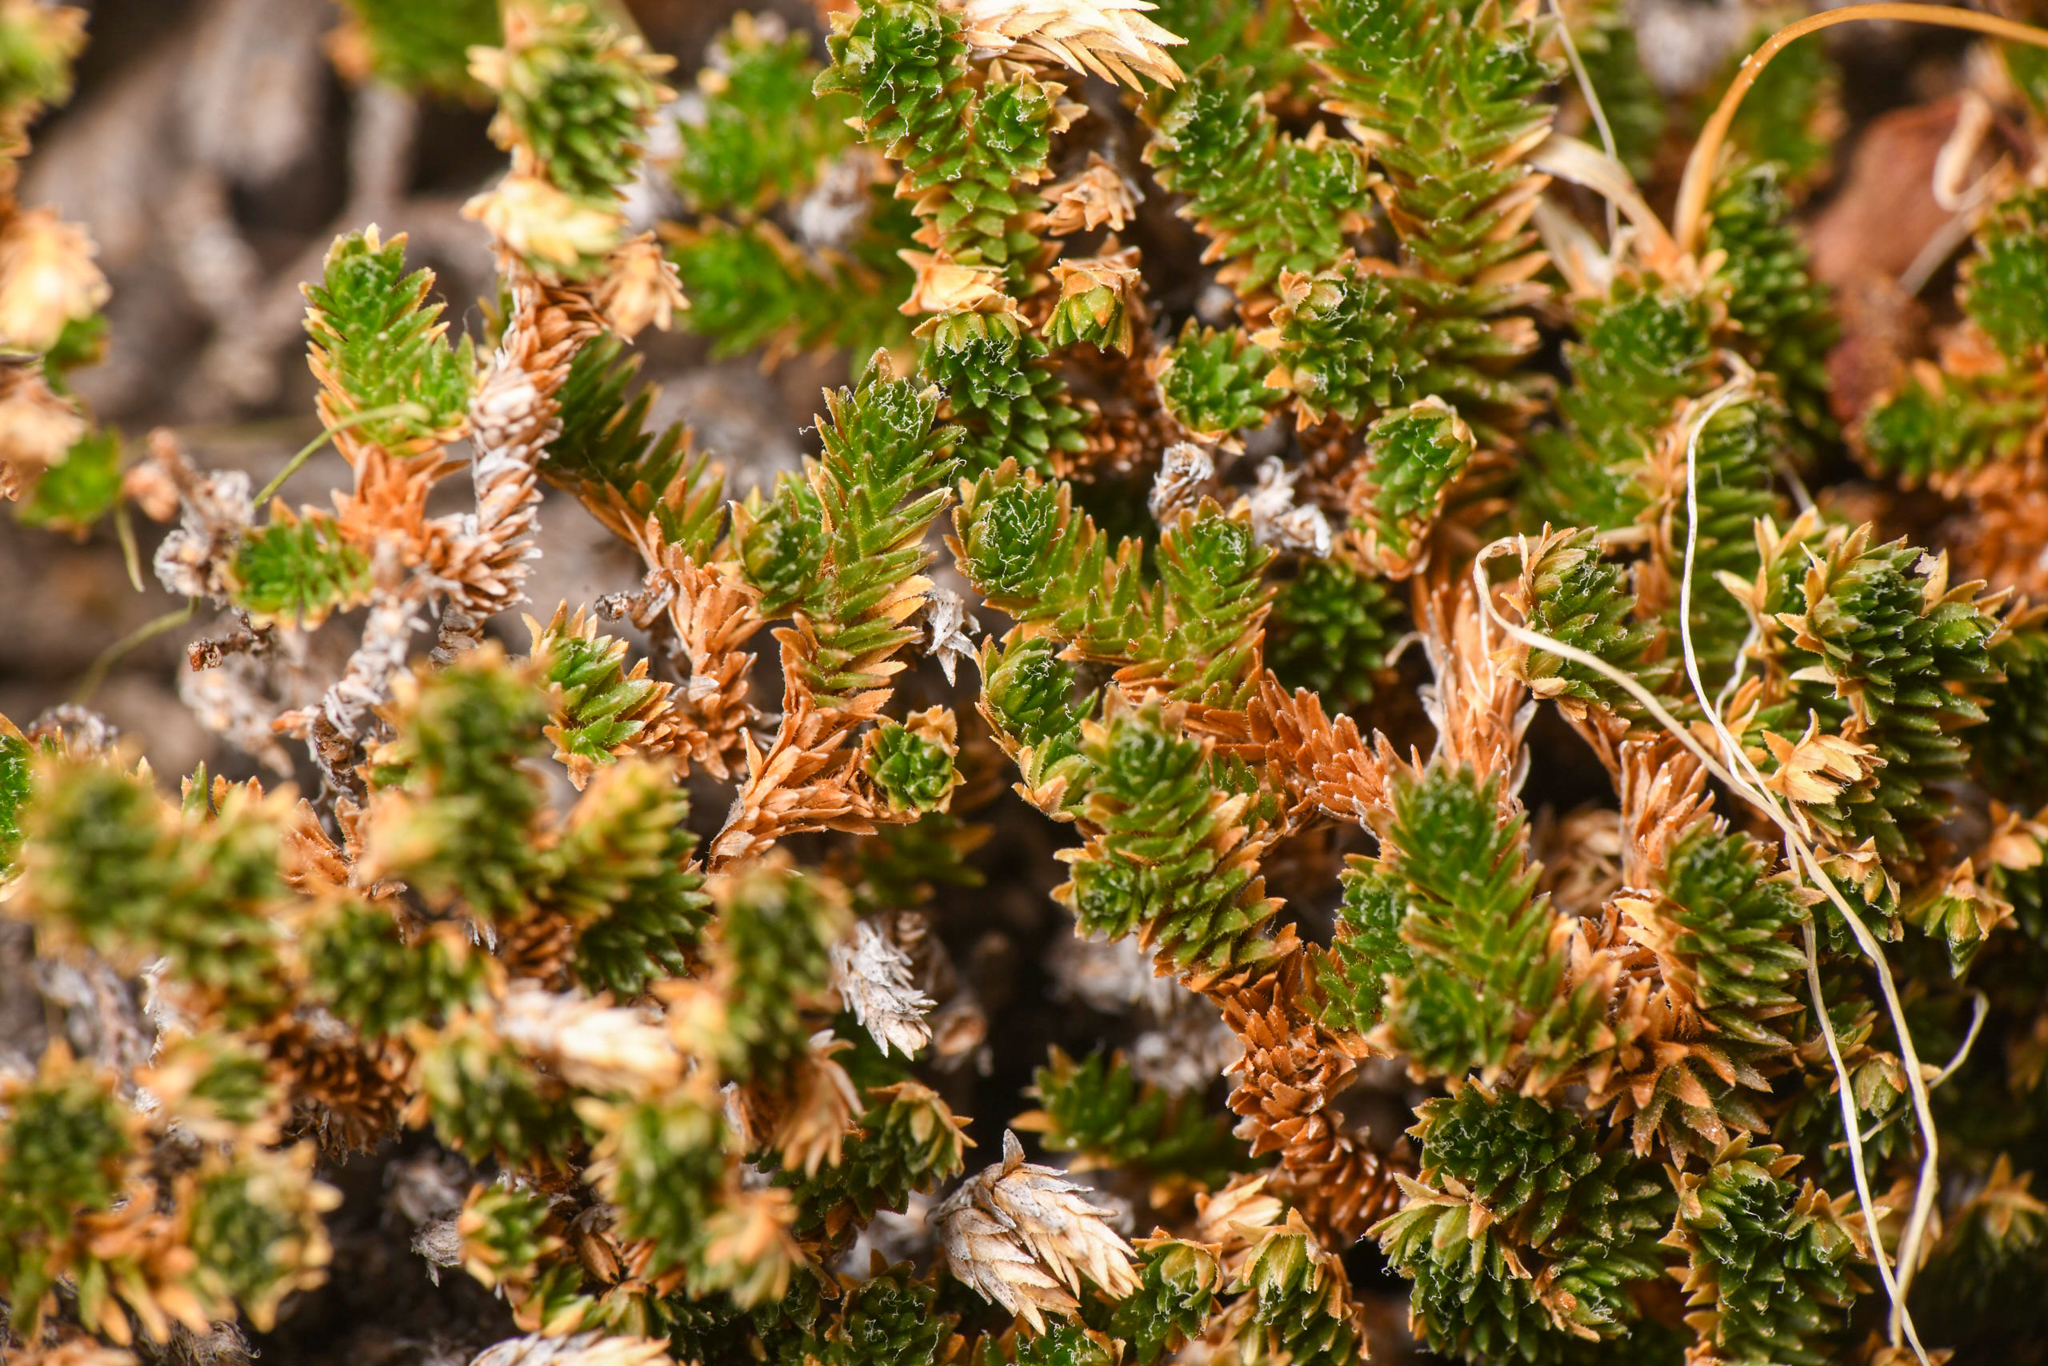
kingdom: Plantae
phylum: Tracheophyta
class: Lycopodiopsida
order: Selaginellales
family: Selaginellaceae
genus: Selaginella
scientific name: Selaginella eremophila
